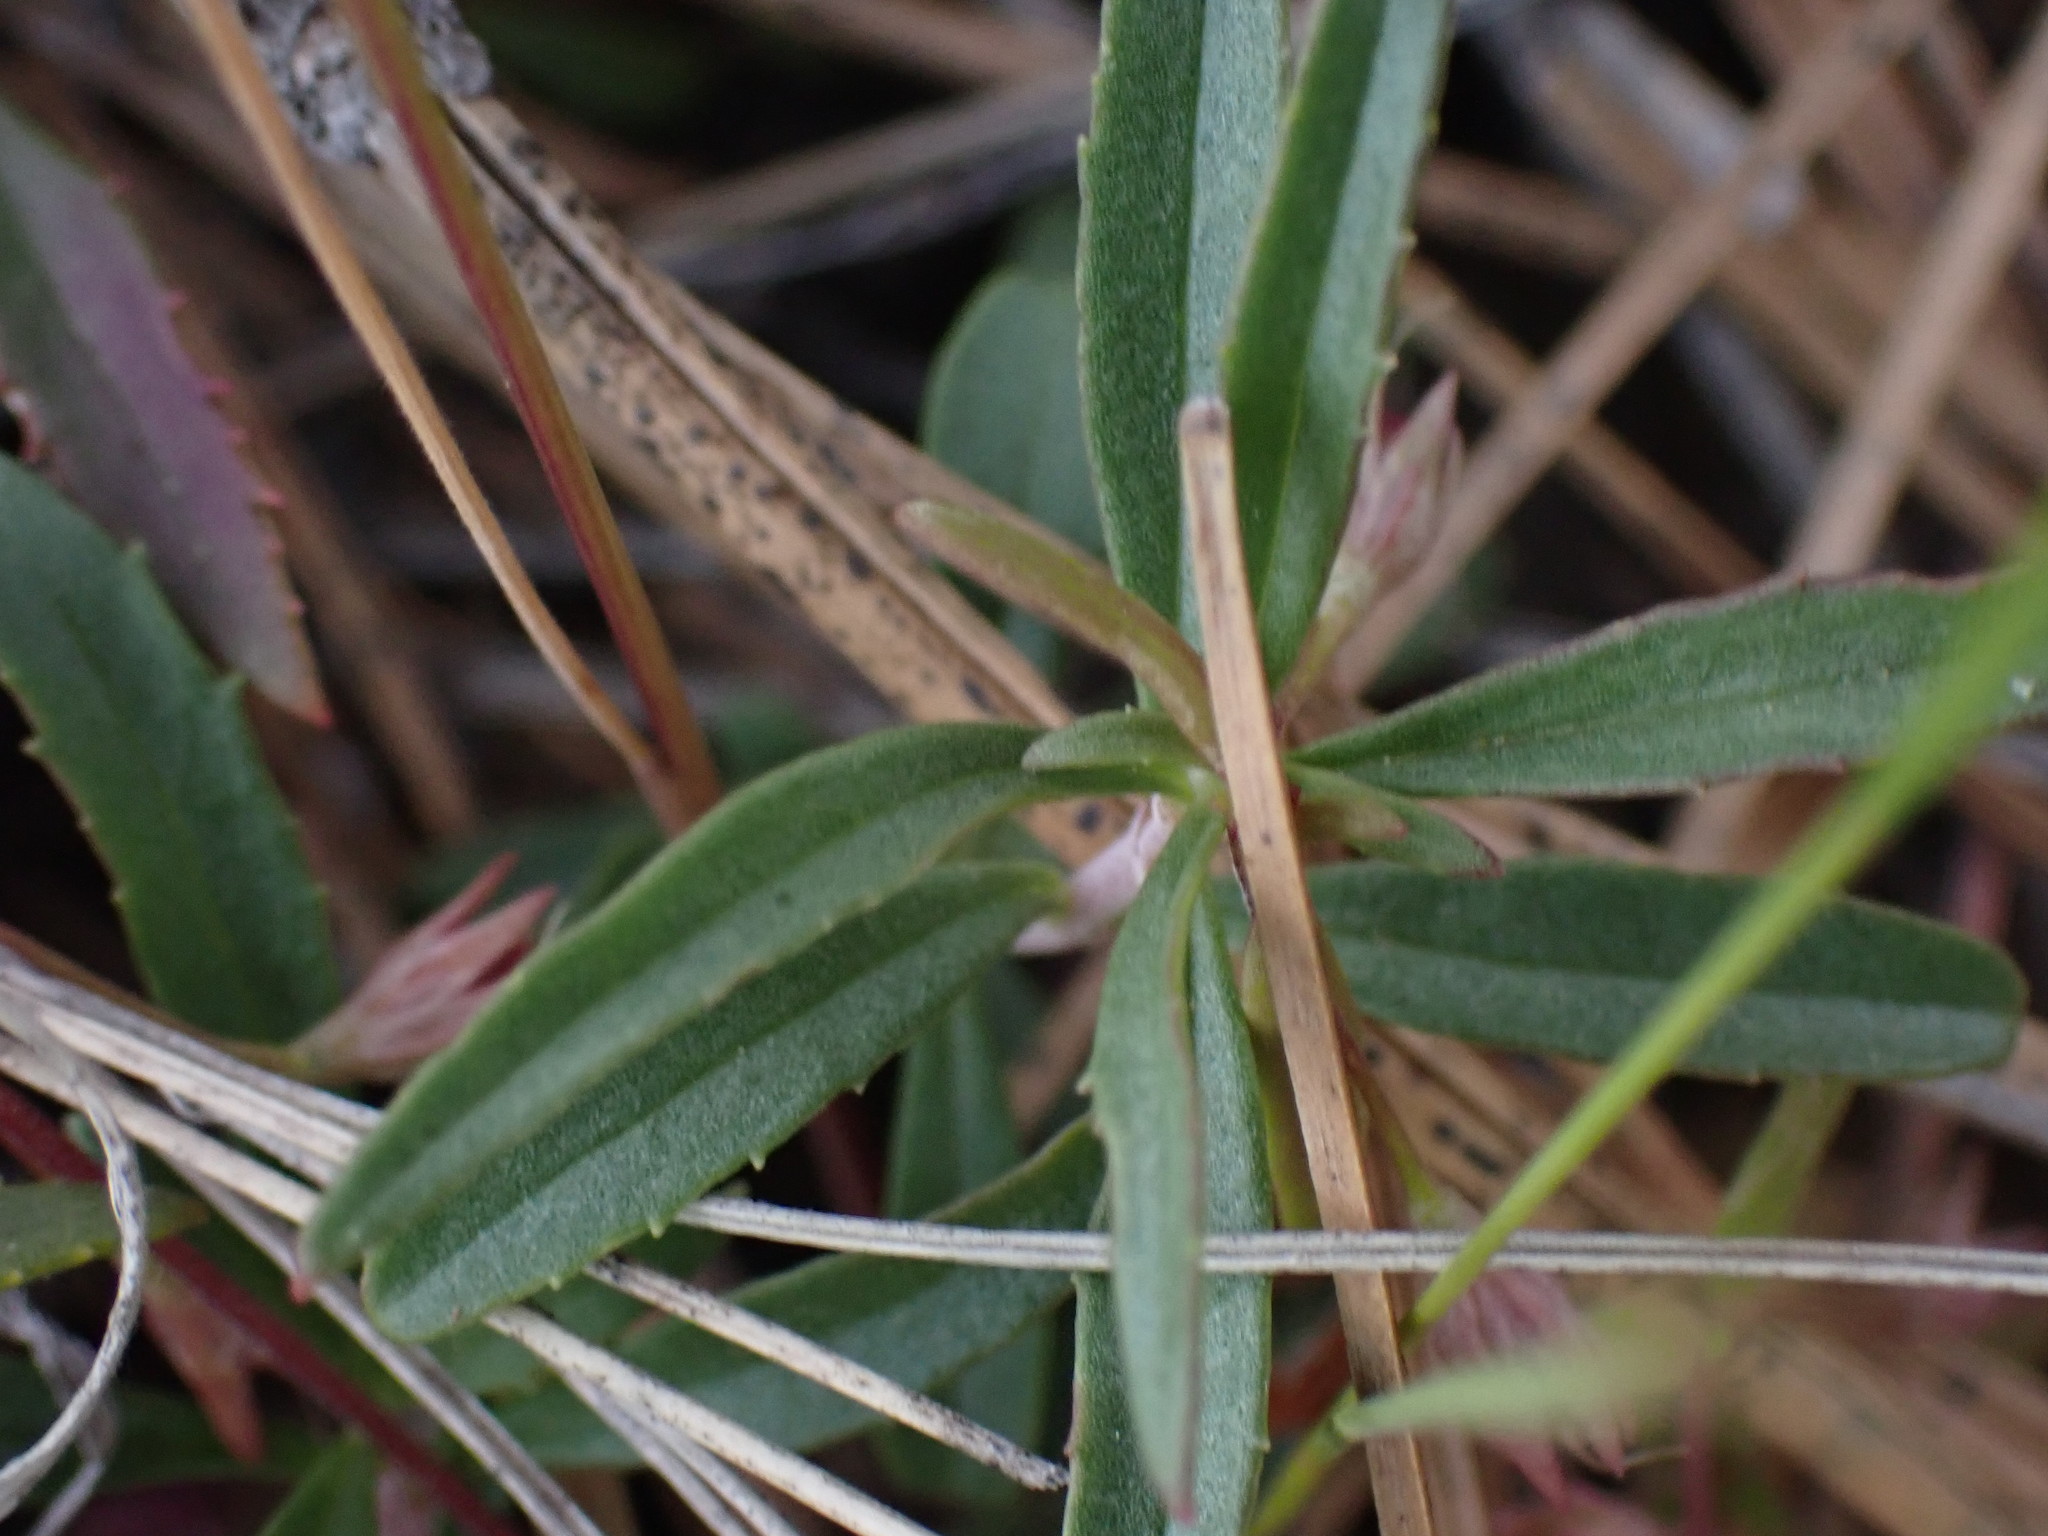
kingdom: Plantae
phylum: Tracheophyta
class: Magnoliopsida
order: Lamiales
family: Plantaginaceae
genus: Penstemon
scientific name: Penstemon fruticosus
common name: Bush penstemon
